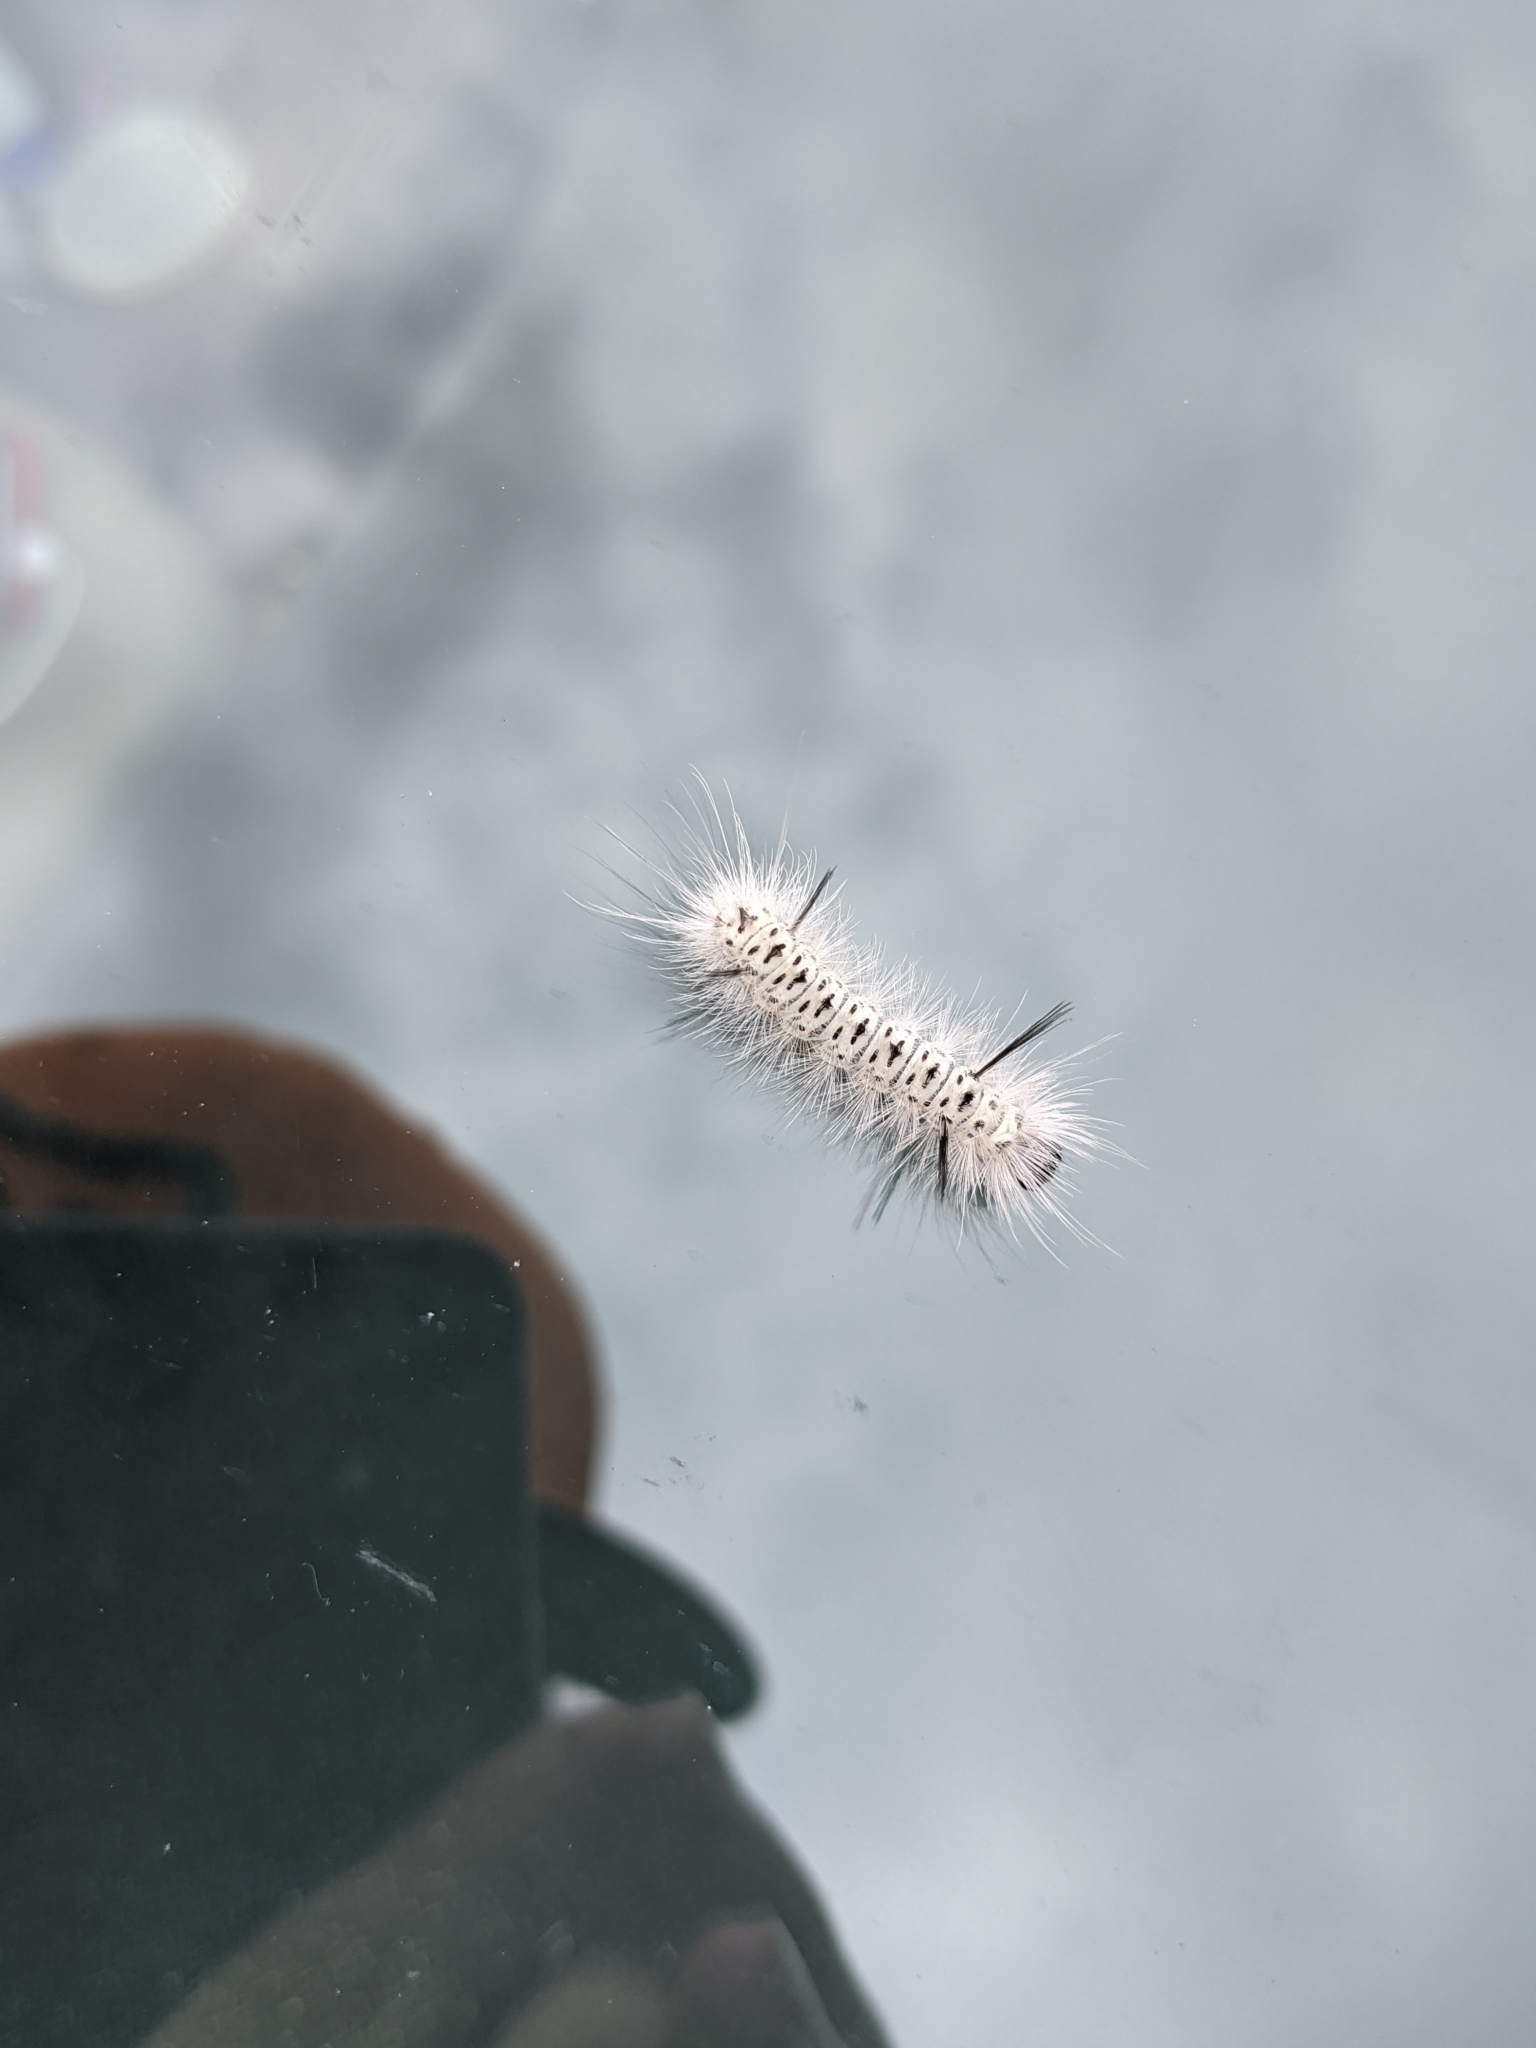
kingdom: Animalia
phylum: Arthropoda
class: Insecta
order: Lepidoptera
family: Erebidae
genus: Lophocampa
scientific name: Lophocampa caryae
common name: Hickory tussock moth
